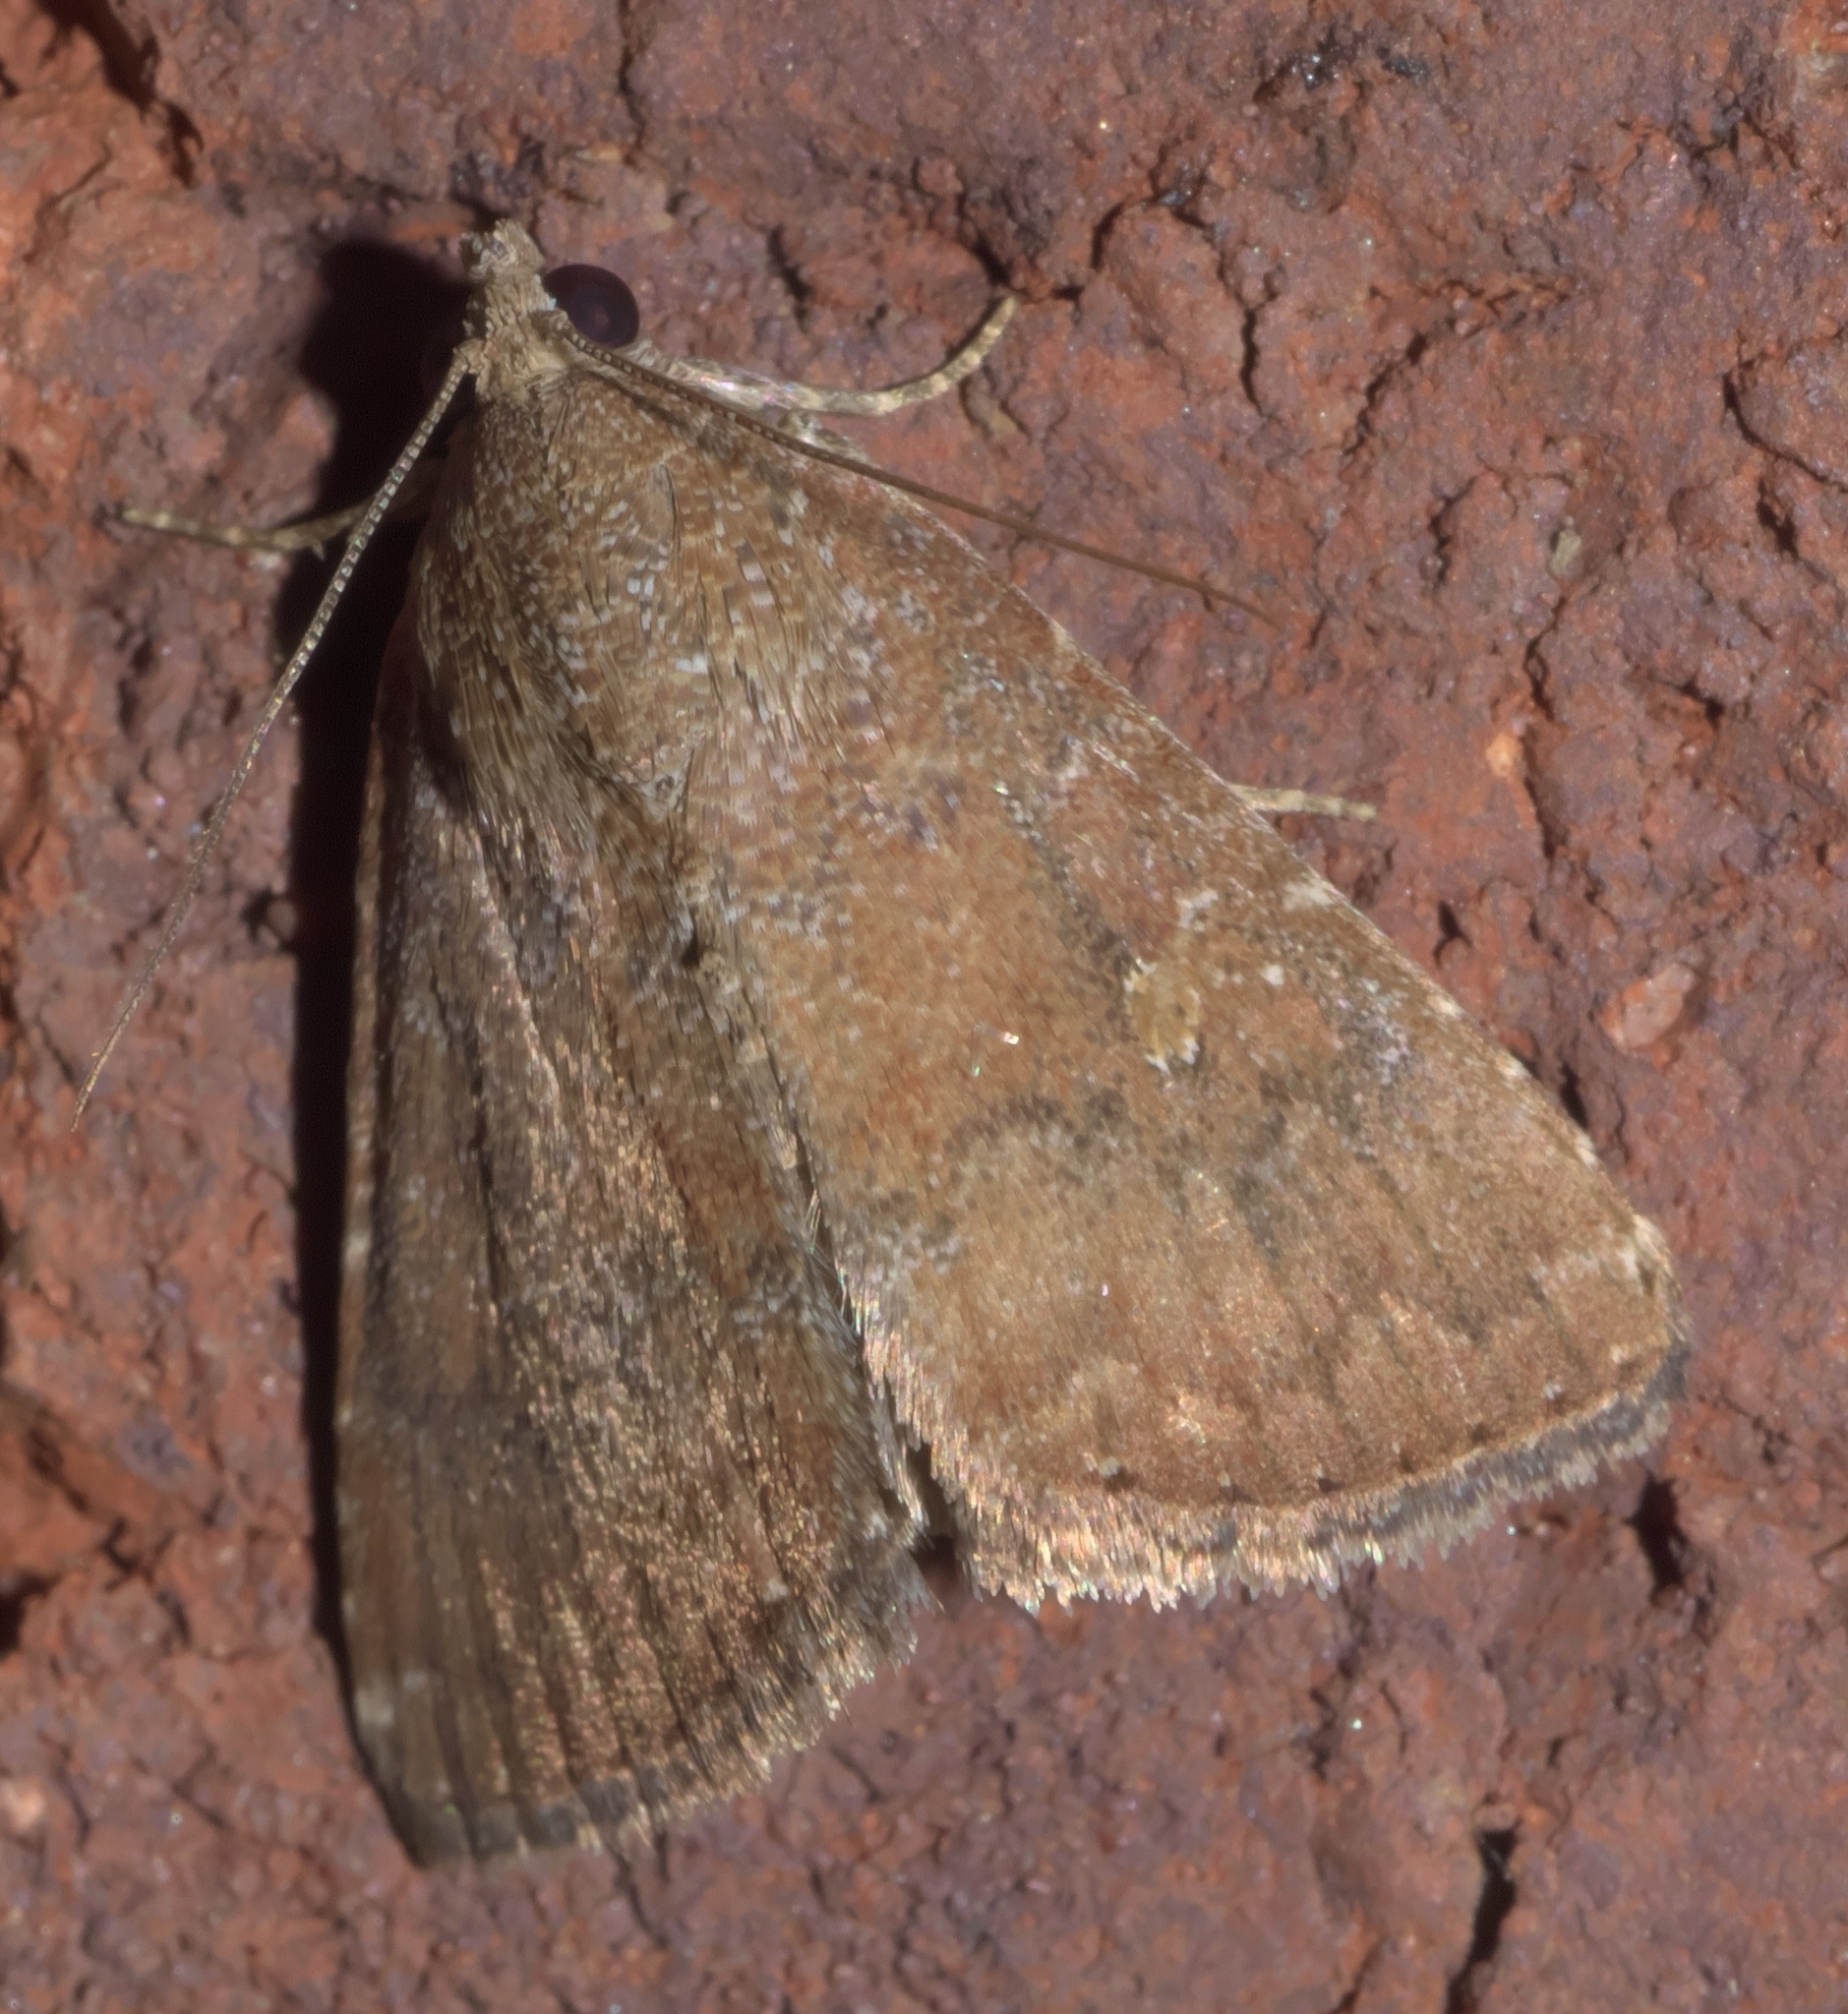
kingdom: Animalia
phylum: Arthropoda
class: Insecta
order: Lepidoptera
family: Noctuidae
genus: Amyna
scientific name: Amyna stricta
